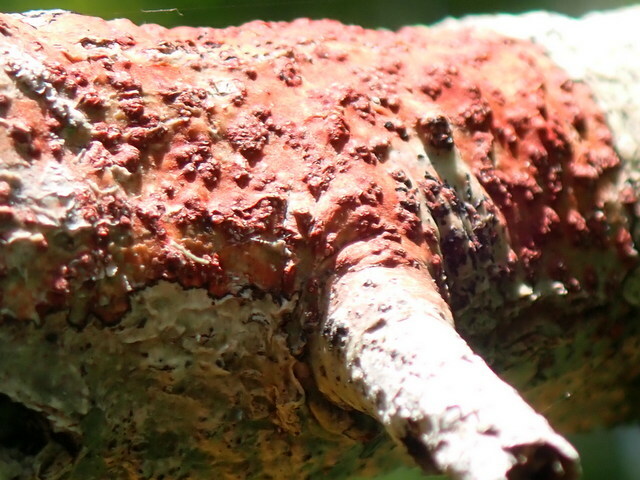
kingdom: Fungi
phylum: Ascomycota
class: Eurotiomycetes
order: Pyrenulales
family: Pyrenulaceae
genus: Pyrenula
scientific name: Pyrenula cruenta
